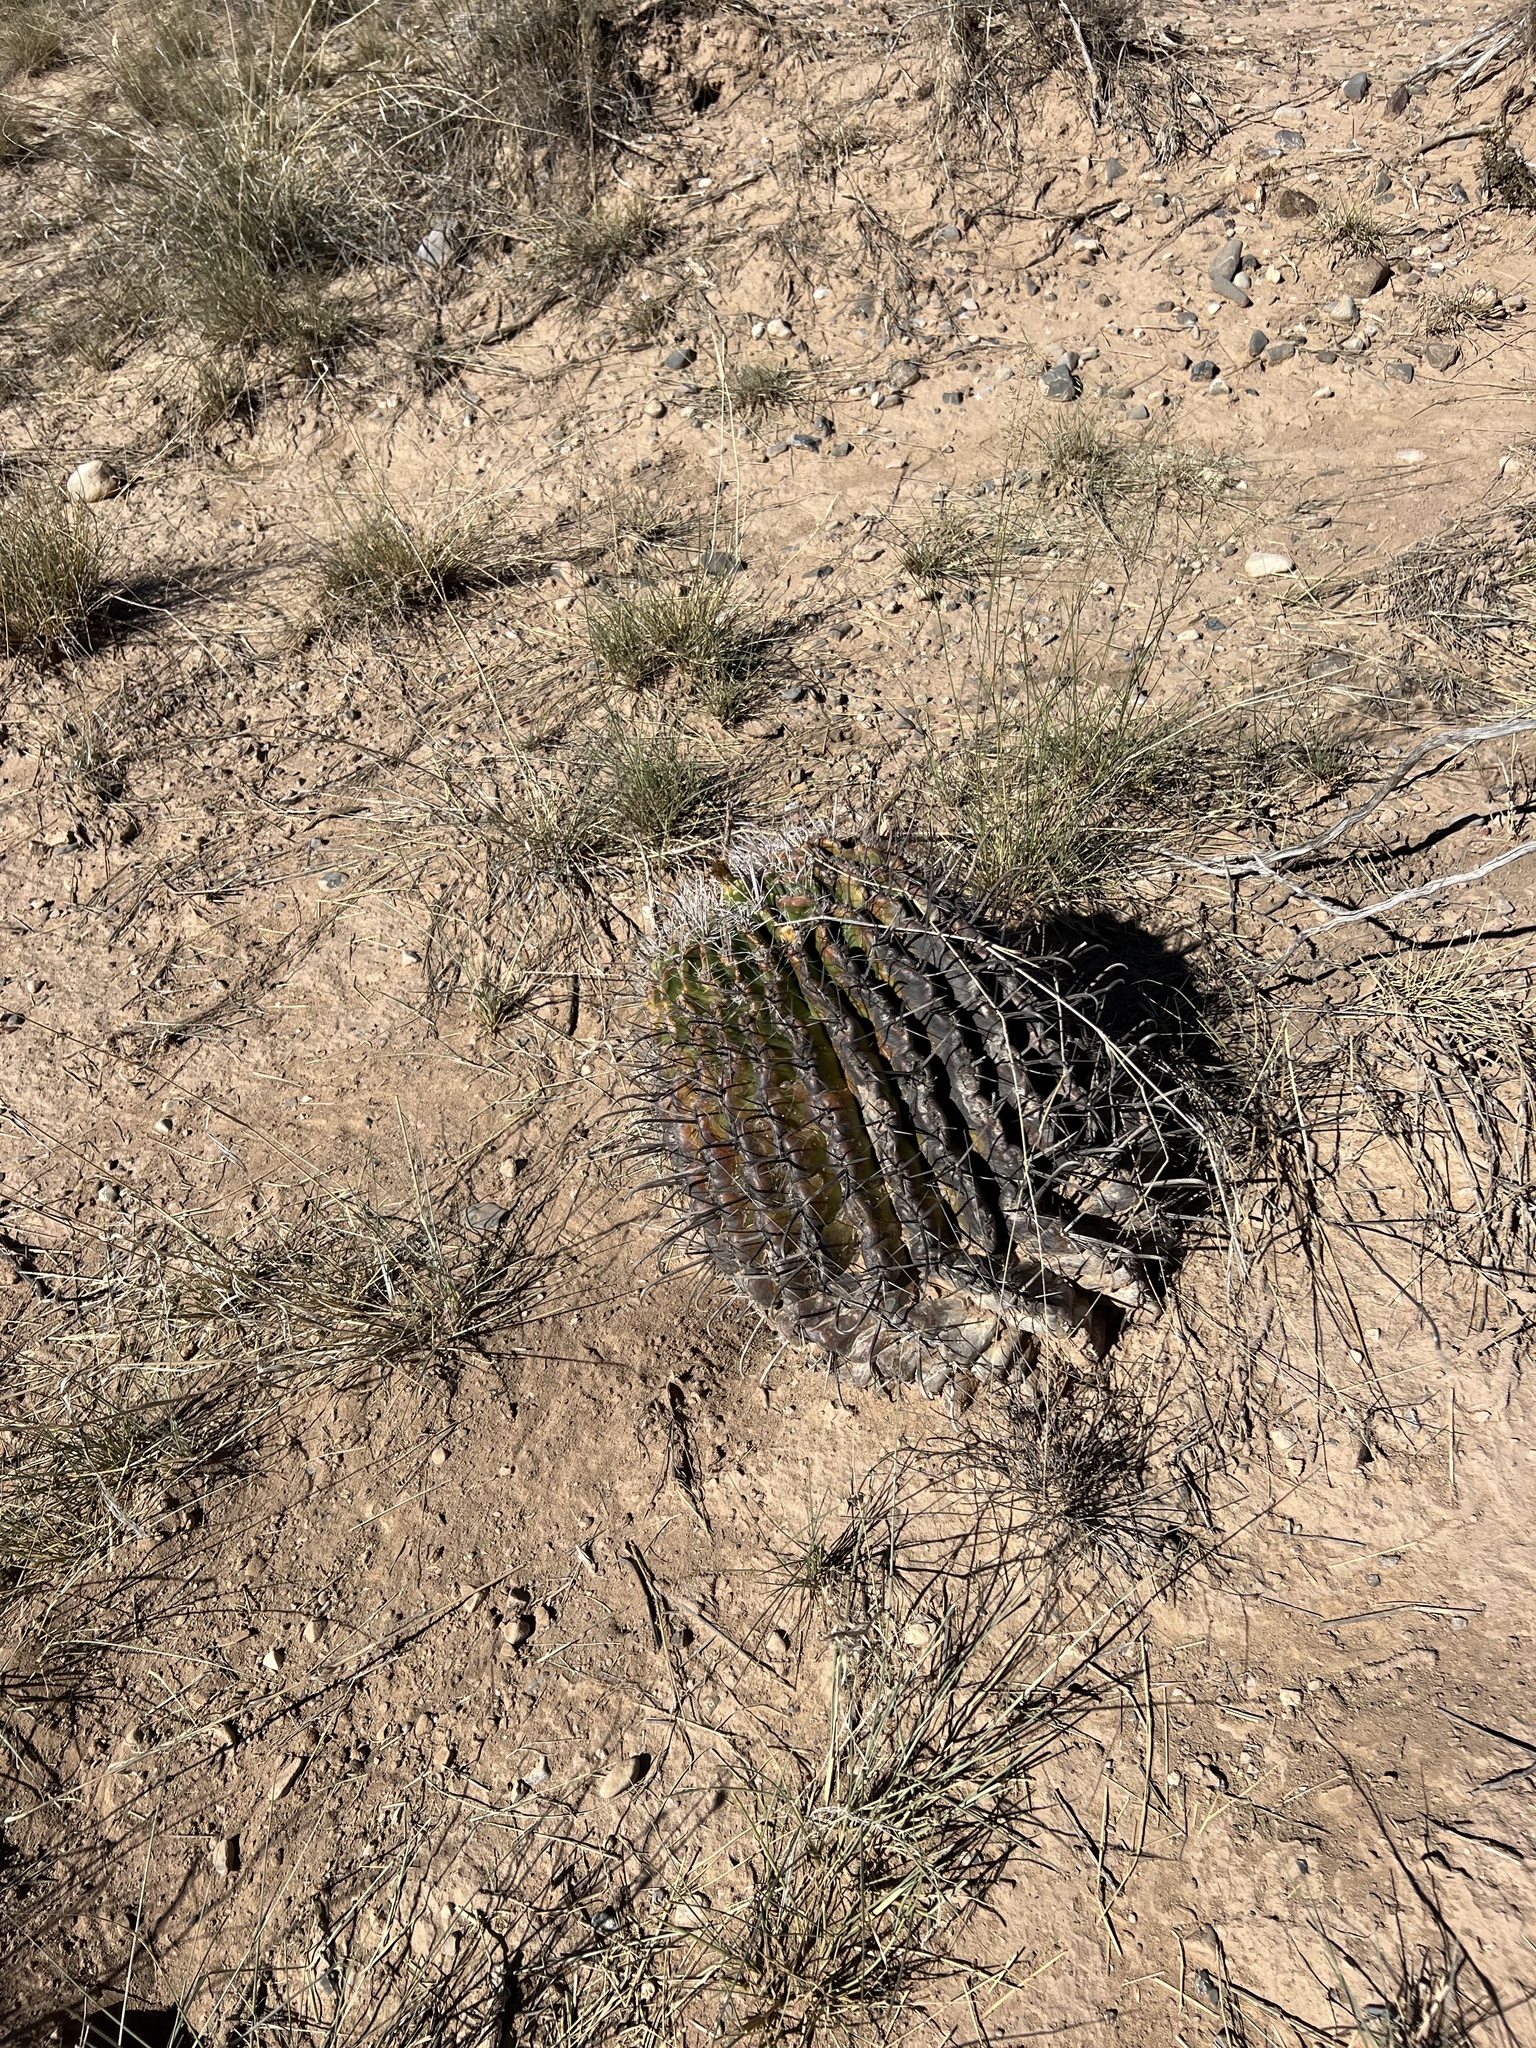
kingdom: Plantae
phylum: Tracheophyta
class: Magnoliopsida
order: Caryophyllales
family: Cactaceae
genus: Ferocactus
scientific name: Ferocactus wislizeni
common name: Candy barrel cactus
